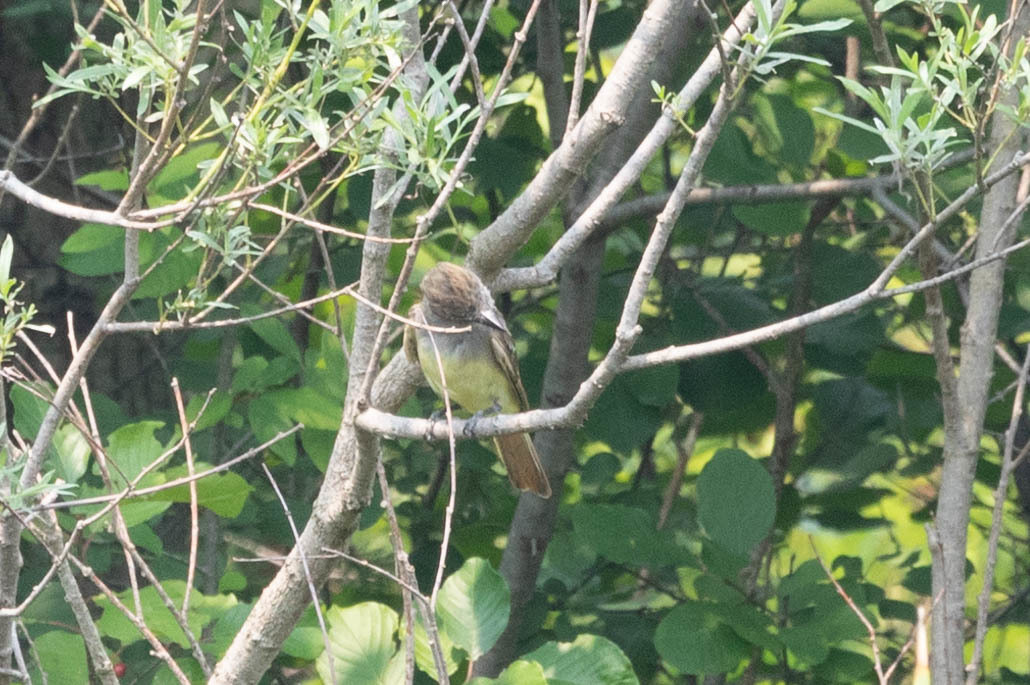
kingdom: Animalia
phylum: Chordata
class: Aves
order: Passeriformes
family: Tyrannidae
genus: Myiarchus
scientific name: Myiarchus crinitus
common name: Great crested flycatcher
